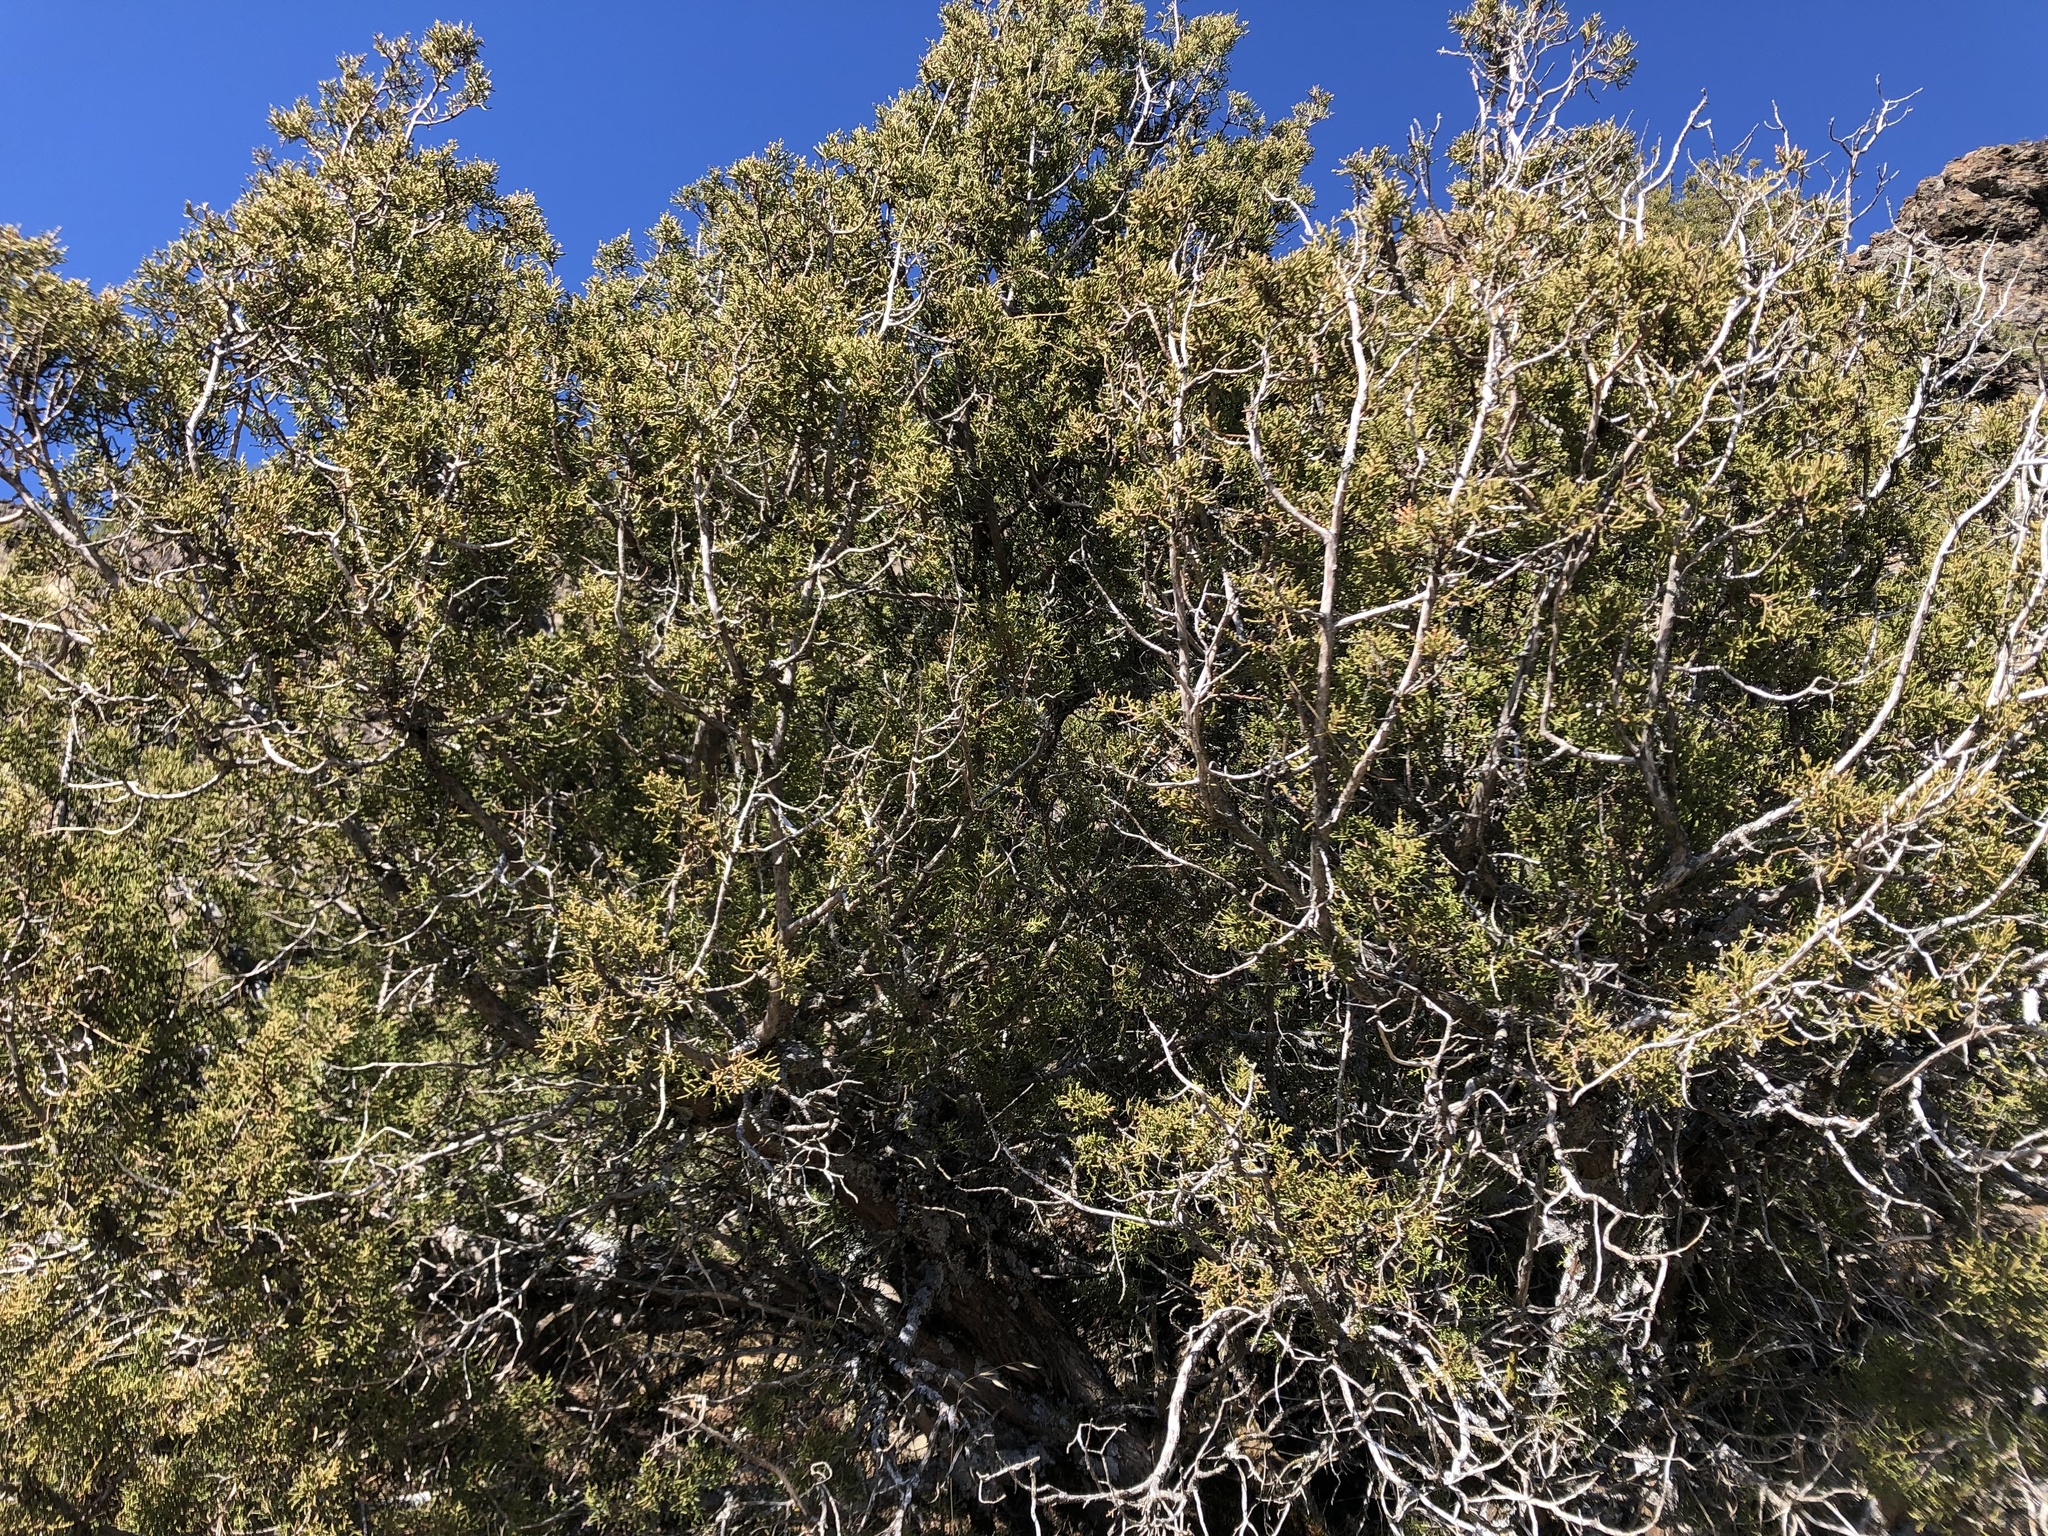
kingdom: Plantae
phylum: Tracheophyta
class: Pinopsida
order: Pinales
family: Cupressaceae
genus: Juniperus
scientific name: Juniperus californica
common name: California juniper
